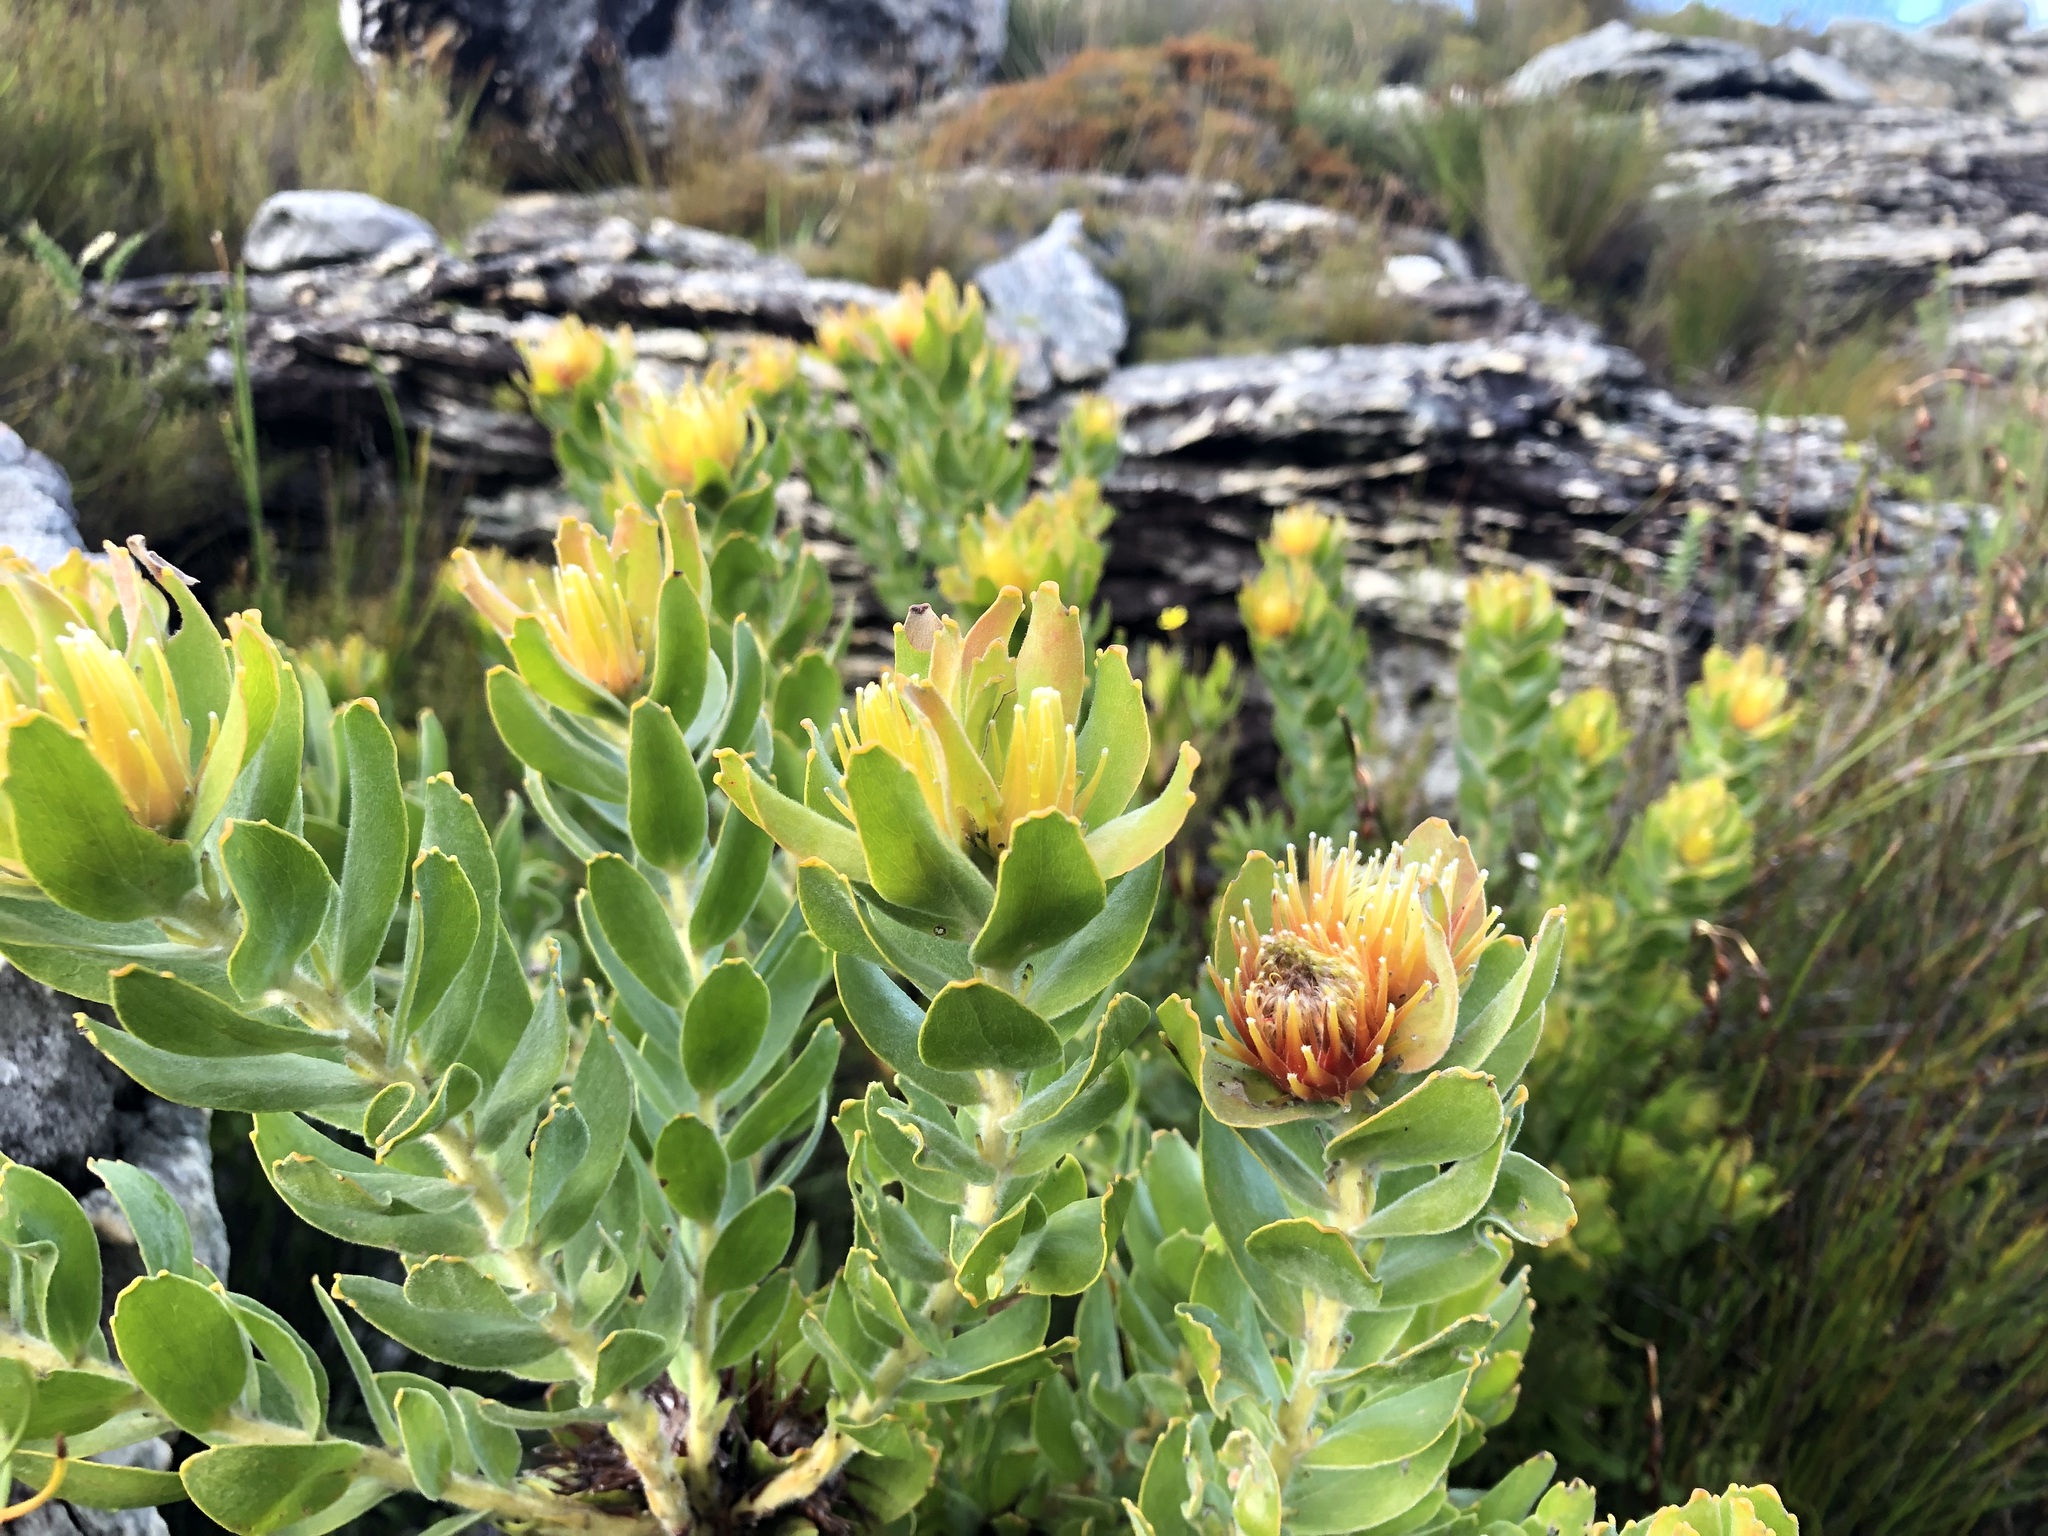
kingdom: Plantae
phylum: Tracheophyta
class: Magnoliopsida
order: Proteales
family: Proteaceae
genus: Leucospermum
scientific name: Leucospermum oleifolium
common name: Matches
